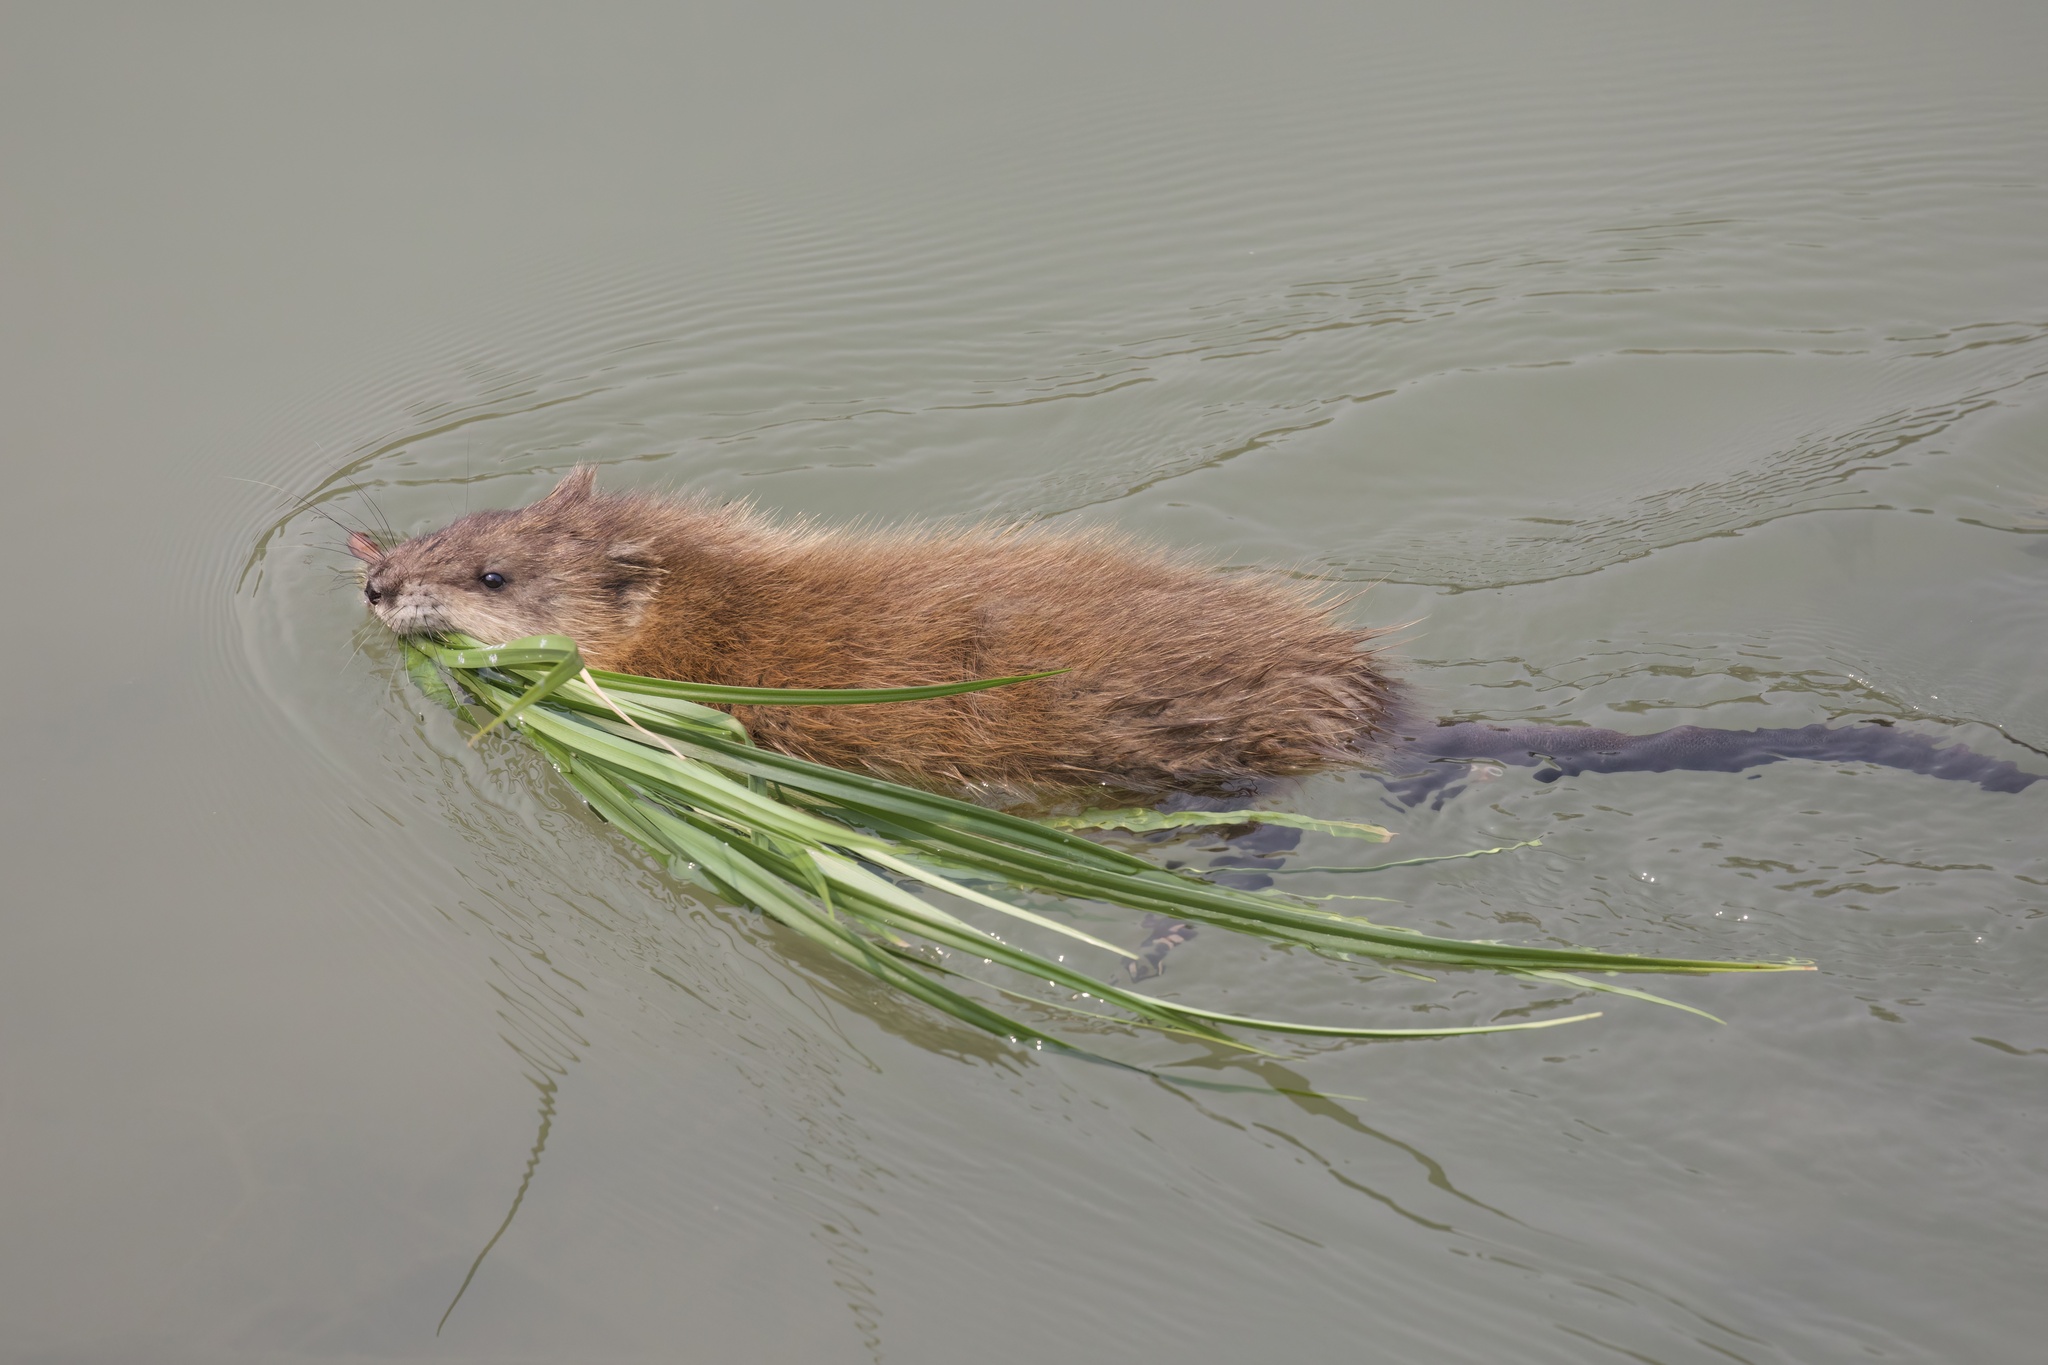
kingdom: Animalia
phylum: Chordata
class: Mammalia
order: Rodentia
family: Cricetidae
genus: Ondatra
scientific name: Ondatra zibethicus
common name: Muskrat
